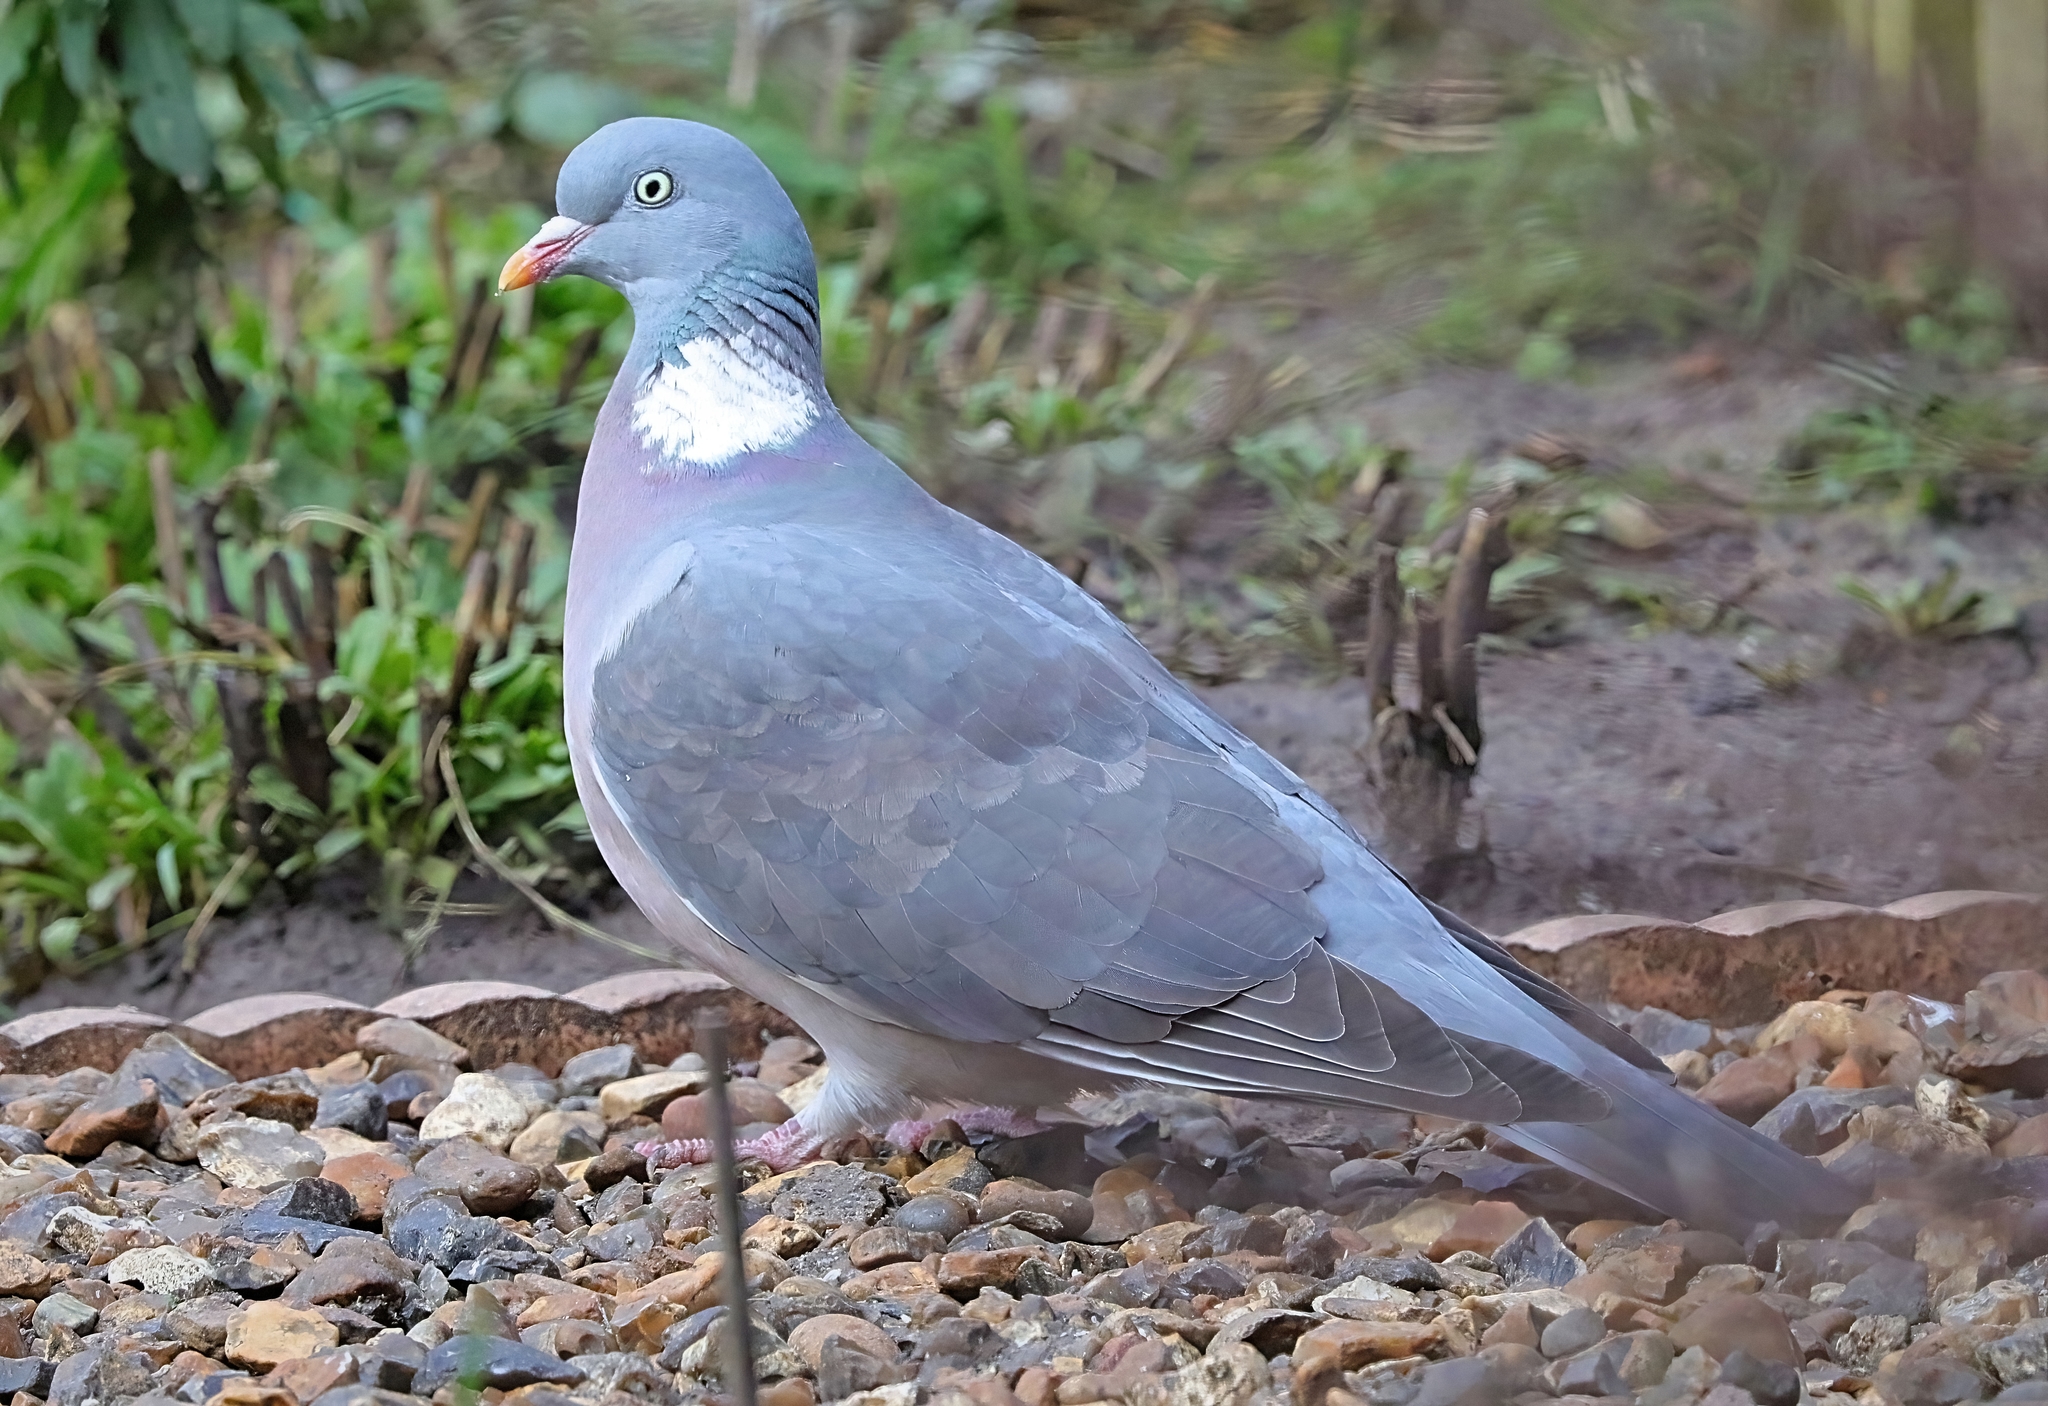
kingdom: Animalia
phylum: Chordata
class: Aves
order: Columbiformes
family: Columbidae
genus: Columba
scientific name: Columba palumbus
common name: Common wood pigeon
